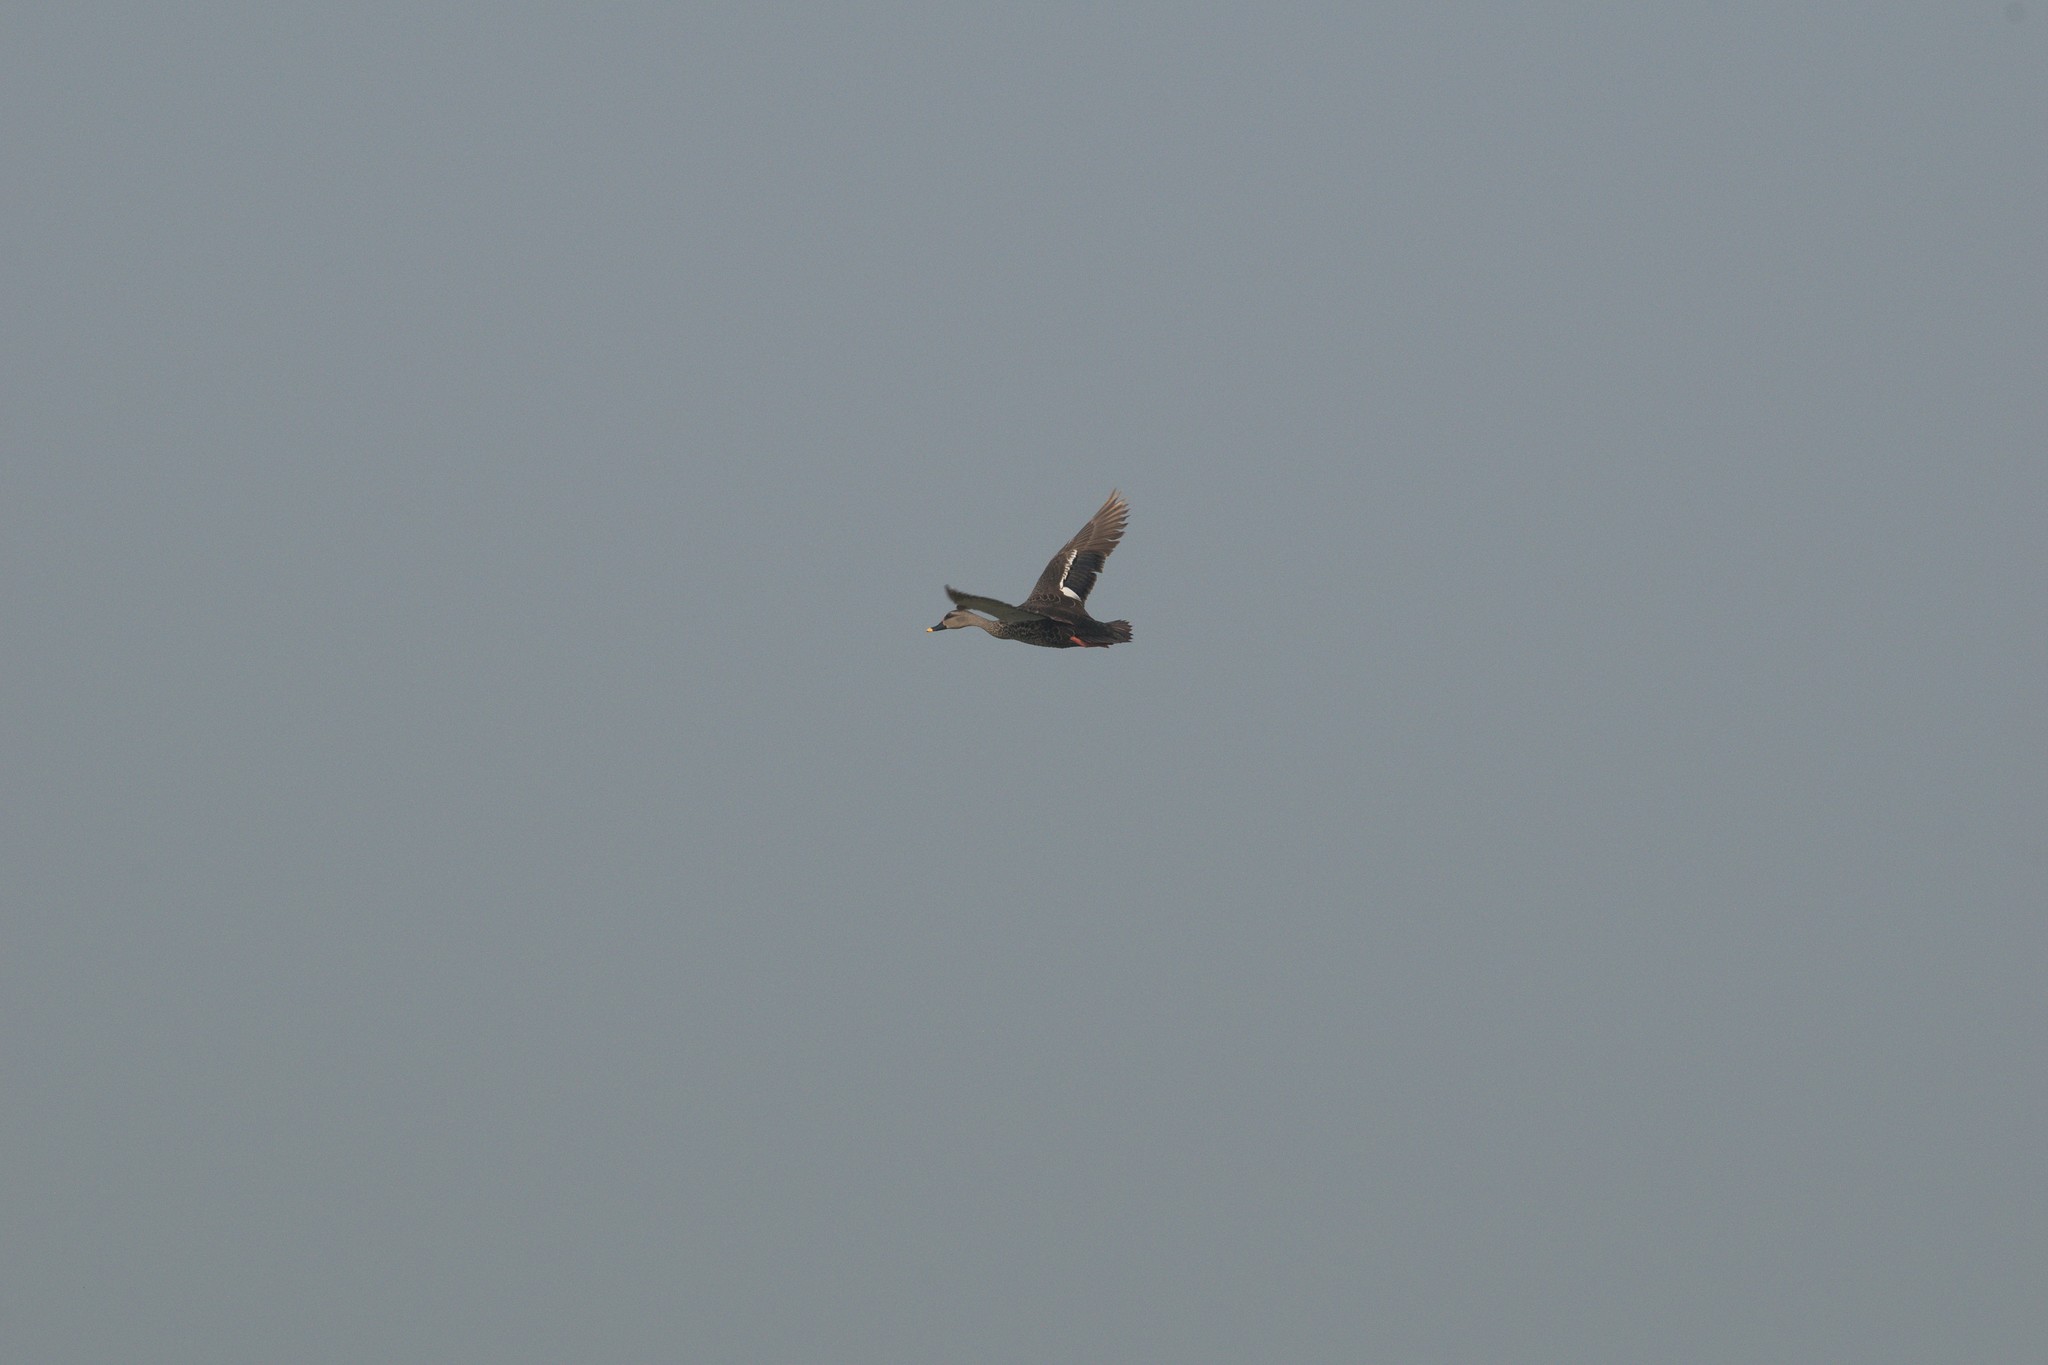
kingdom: Animalia
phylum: Chordata
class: Aves
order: Anseriformes
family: Anatidae
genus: Anas
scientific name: Anas poecilorhyncha
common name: Indian spot-billed duck
